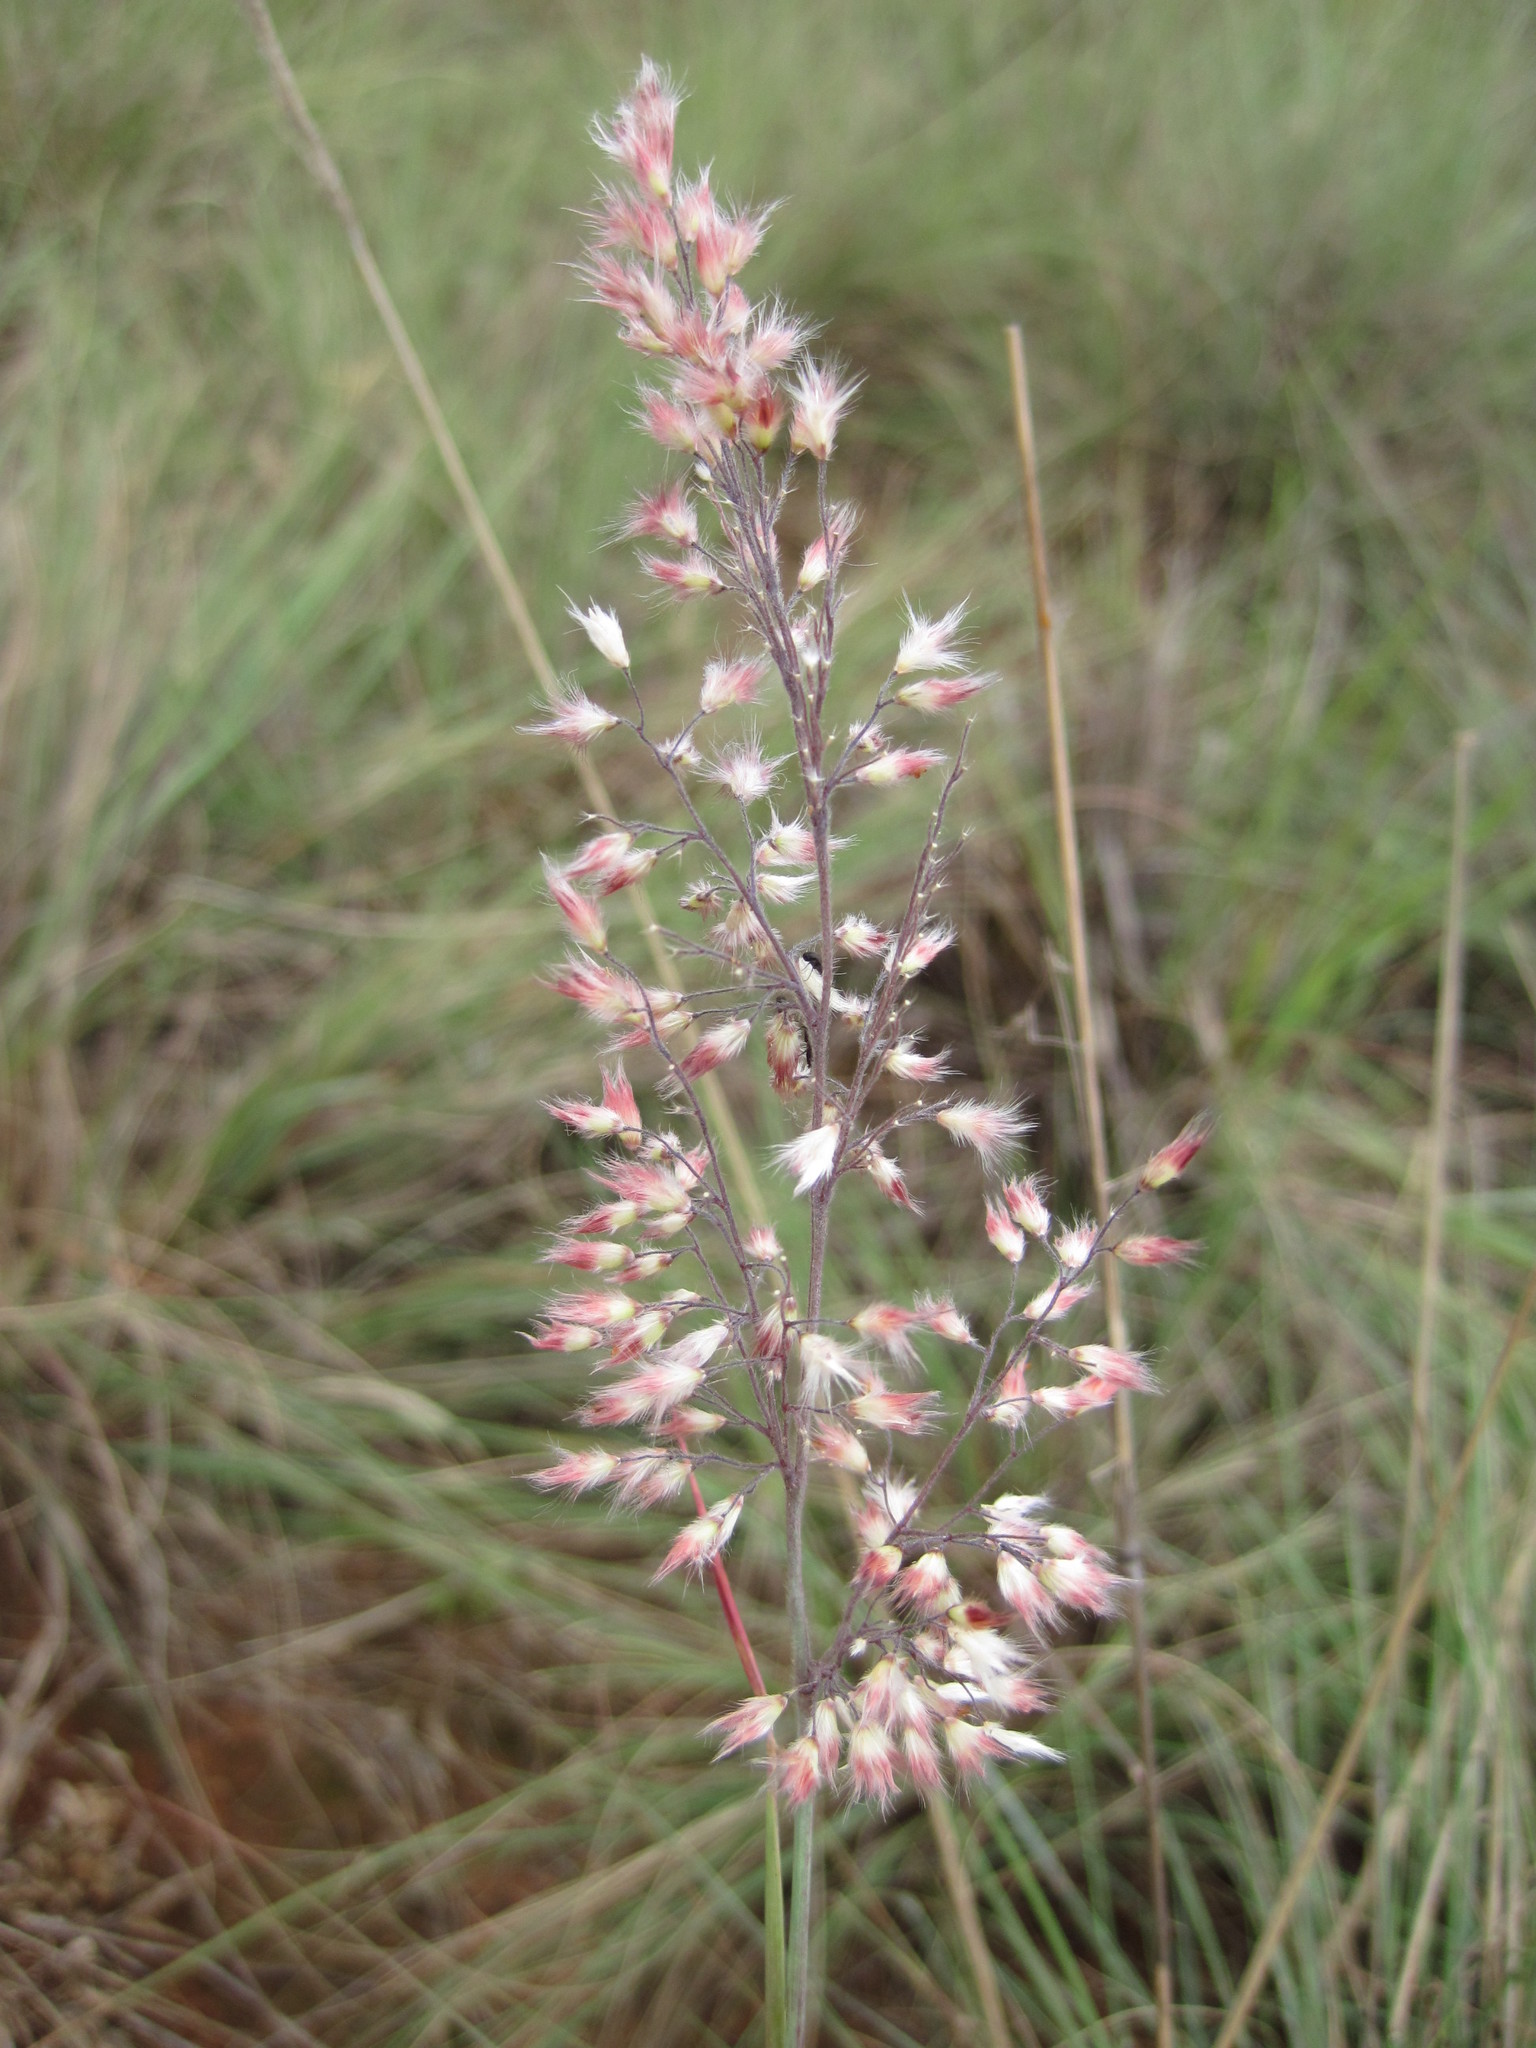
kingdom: Plantae
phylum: Tracheophyta
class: Liliopsida
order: Poales
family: Poaceae
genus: Melinis
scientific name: Melinis repens
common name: Rose natal grass
